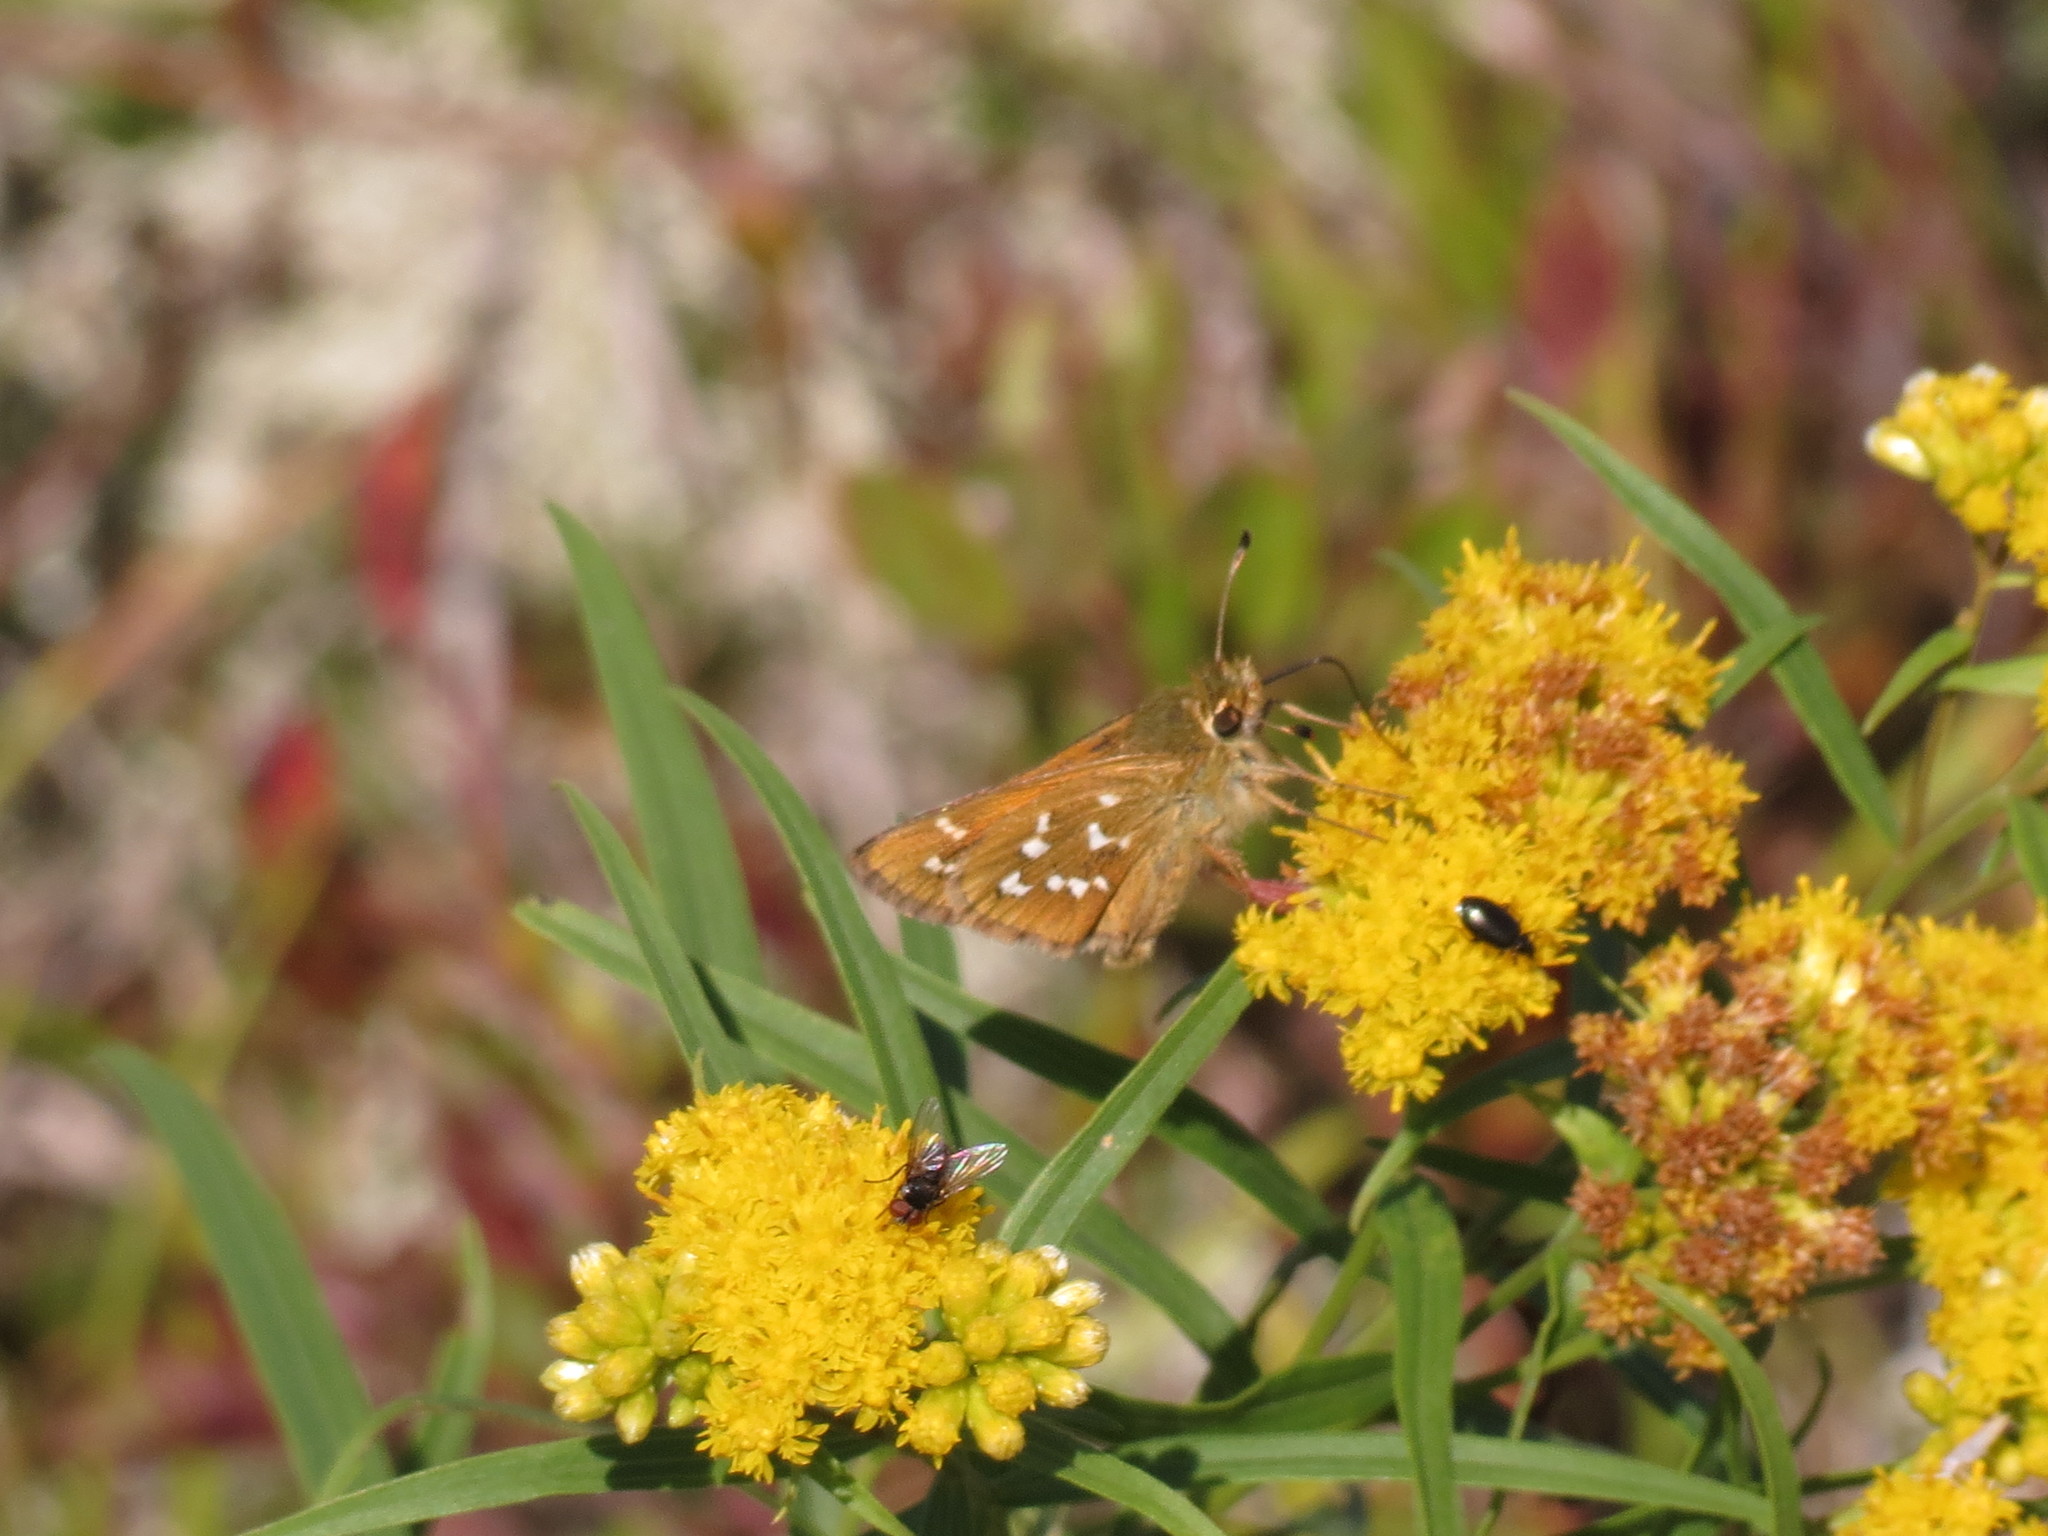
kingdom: Animalia
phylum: Arthropoda
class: Insecta
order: Lepidoptera
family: Hesperiidae
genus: Hesperia
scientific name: Hesperia comma
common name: Common branded skipper
